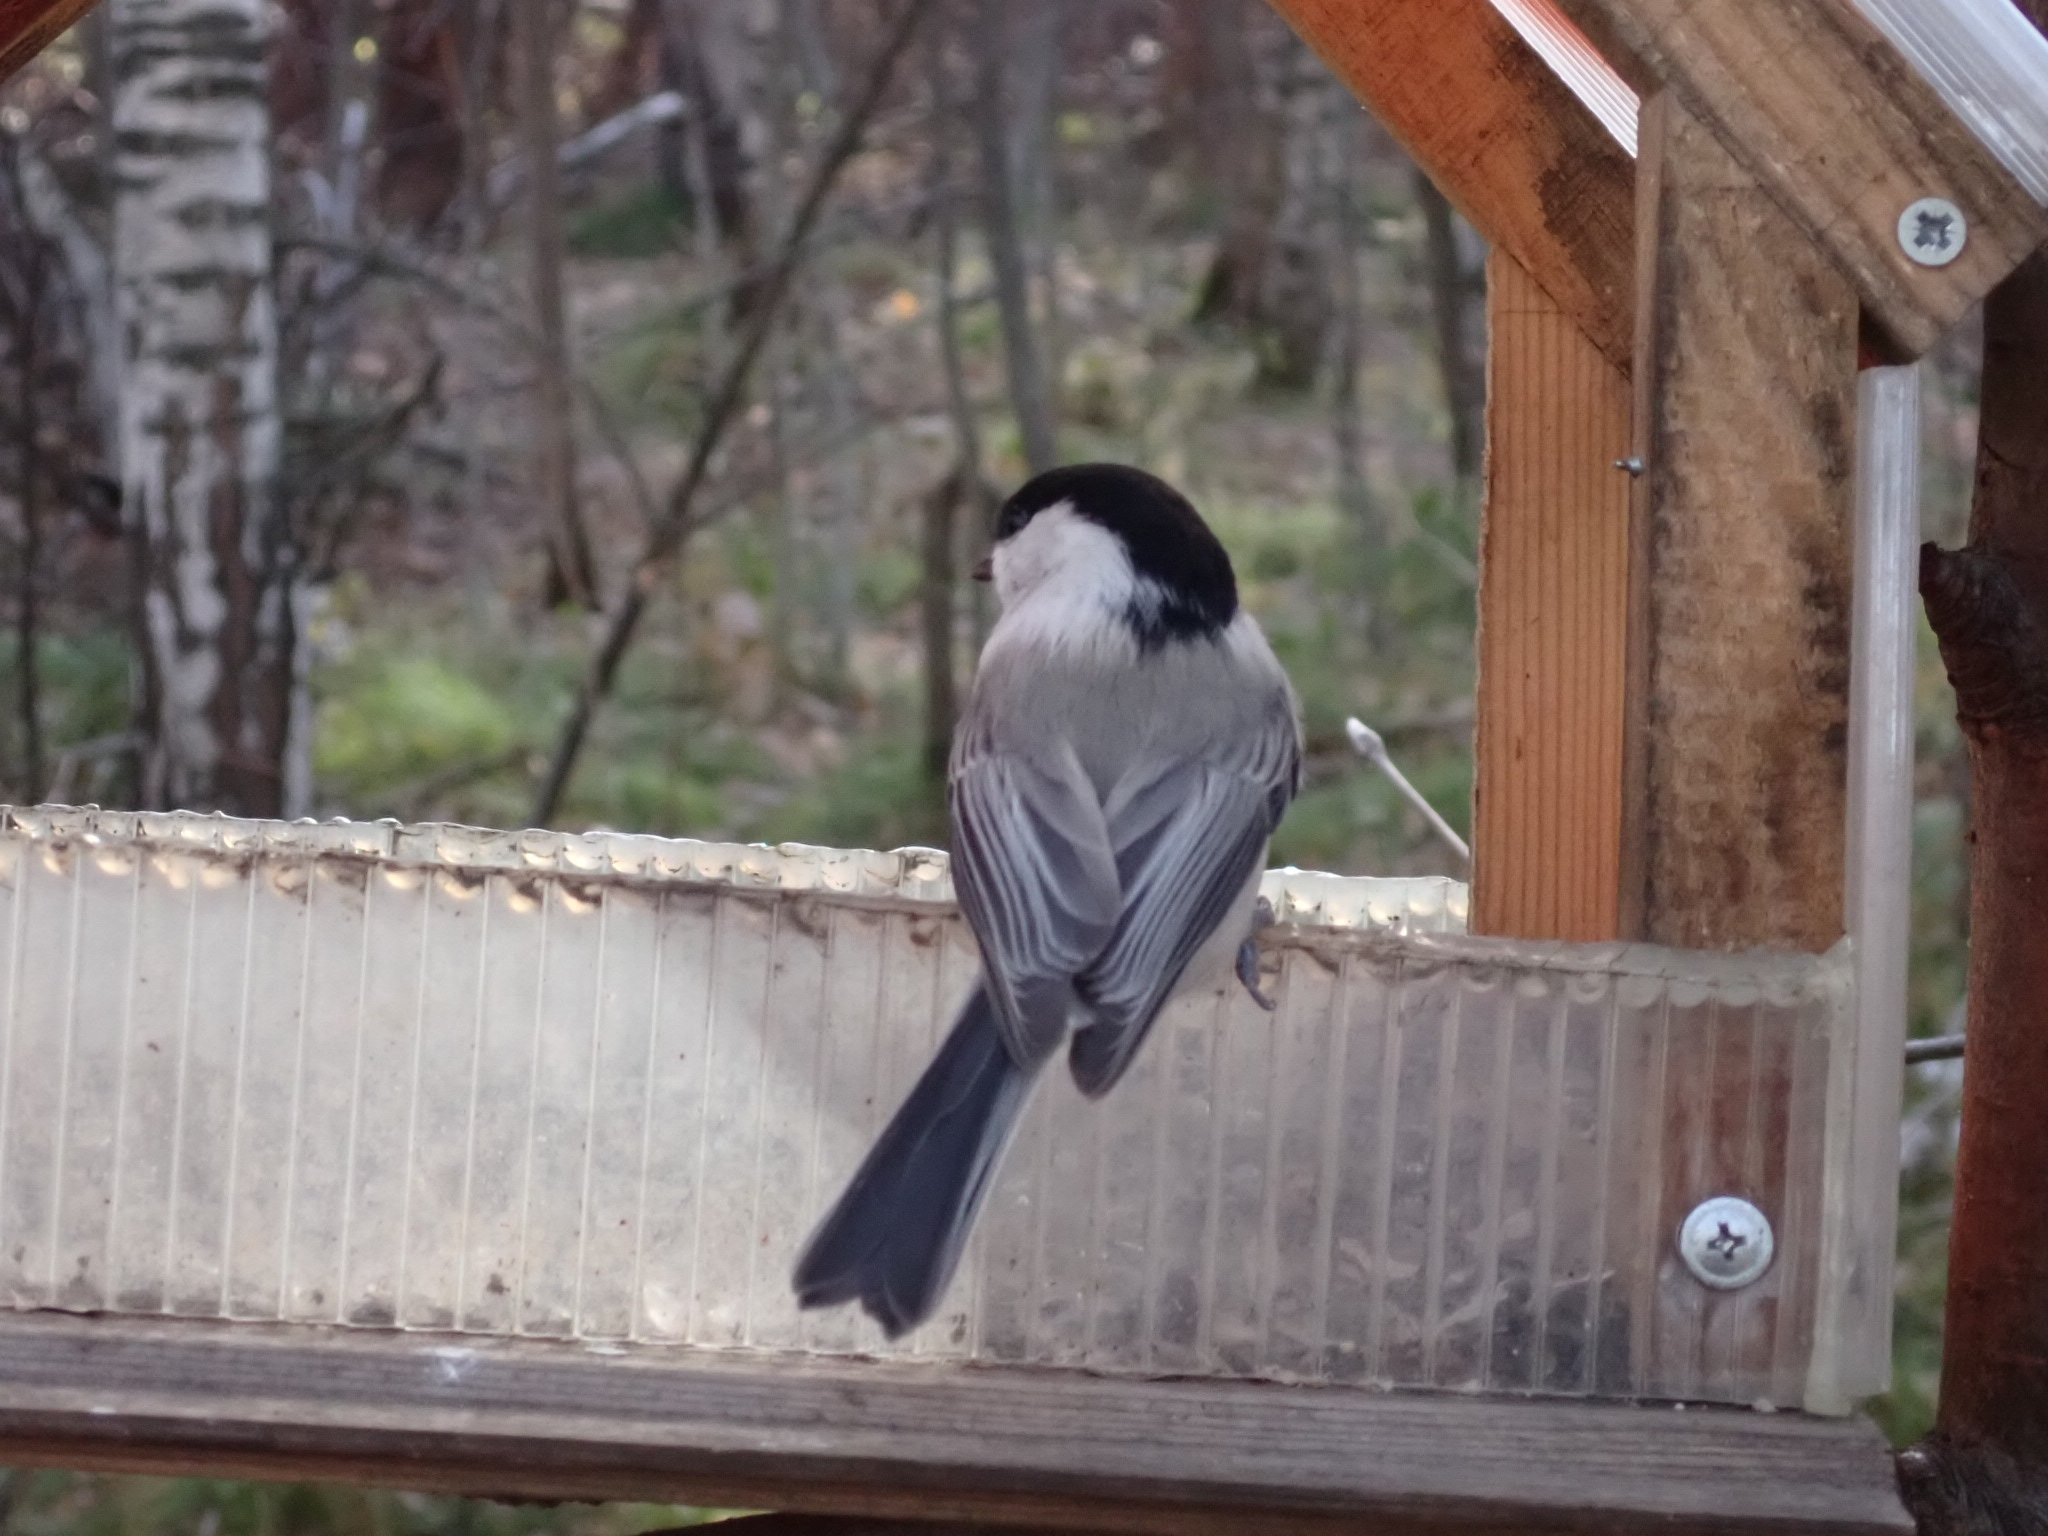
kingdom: Animalia
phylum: Chordata
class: Aves
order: Passeriformes
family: Paridae
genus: Poecile
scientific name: Poecile montanus
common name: Willow tit
